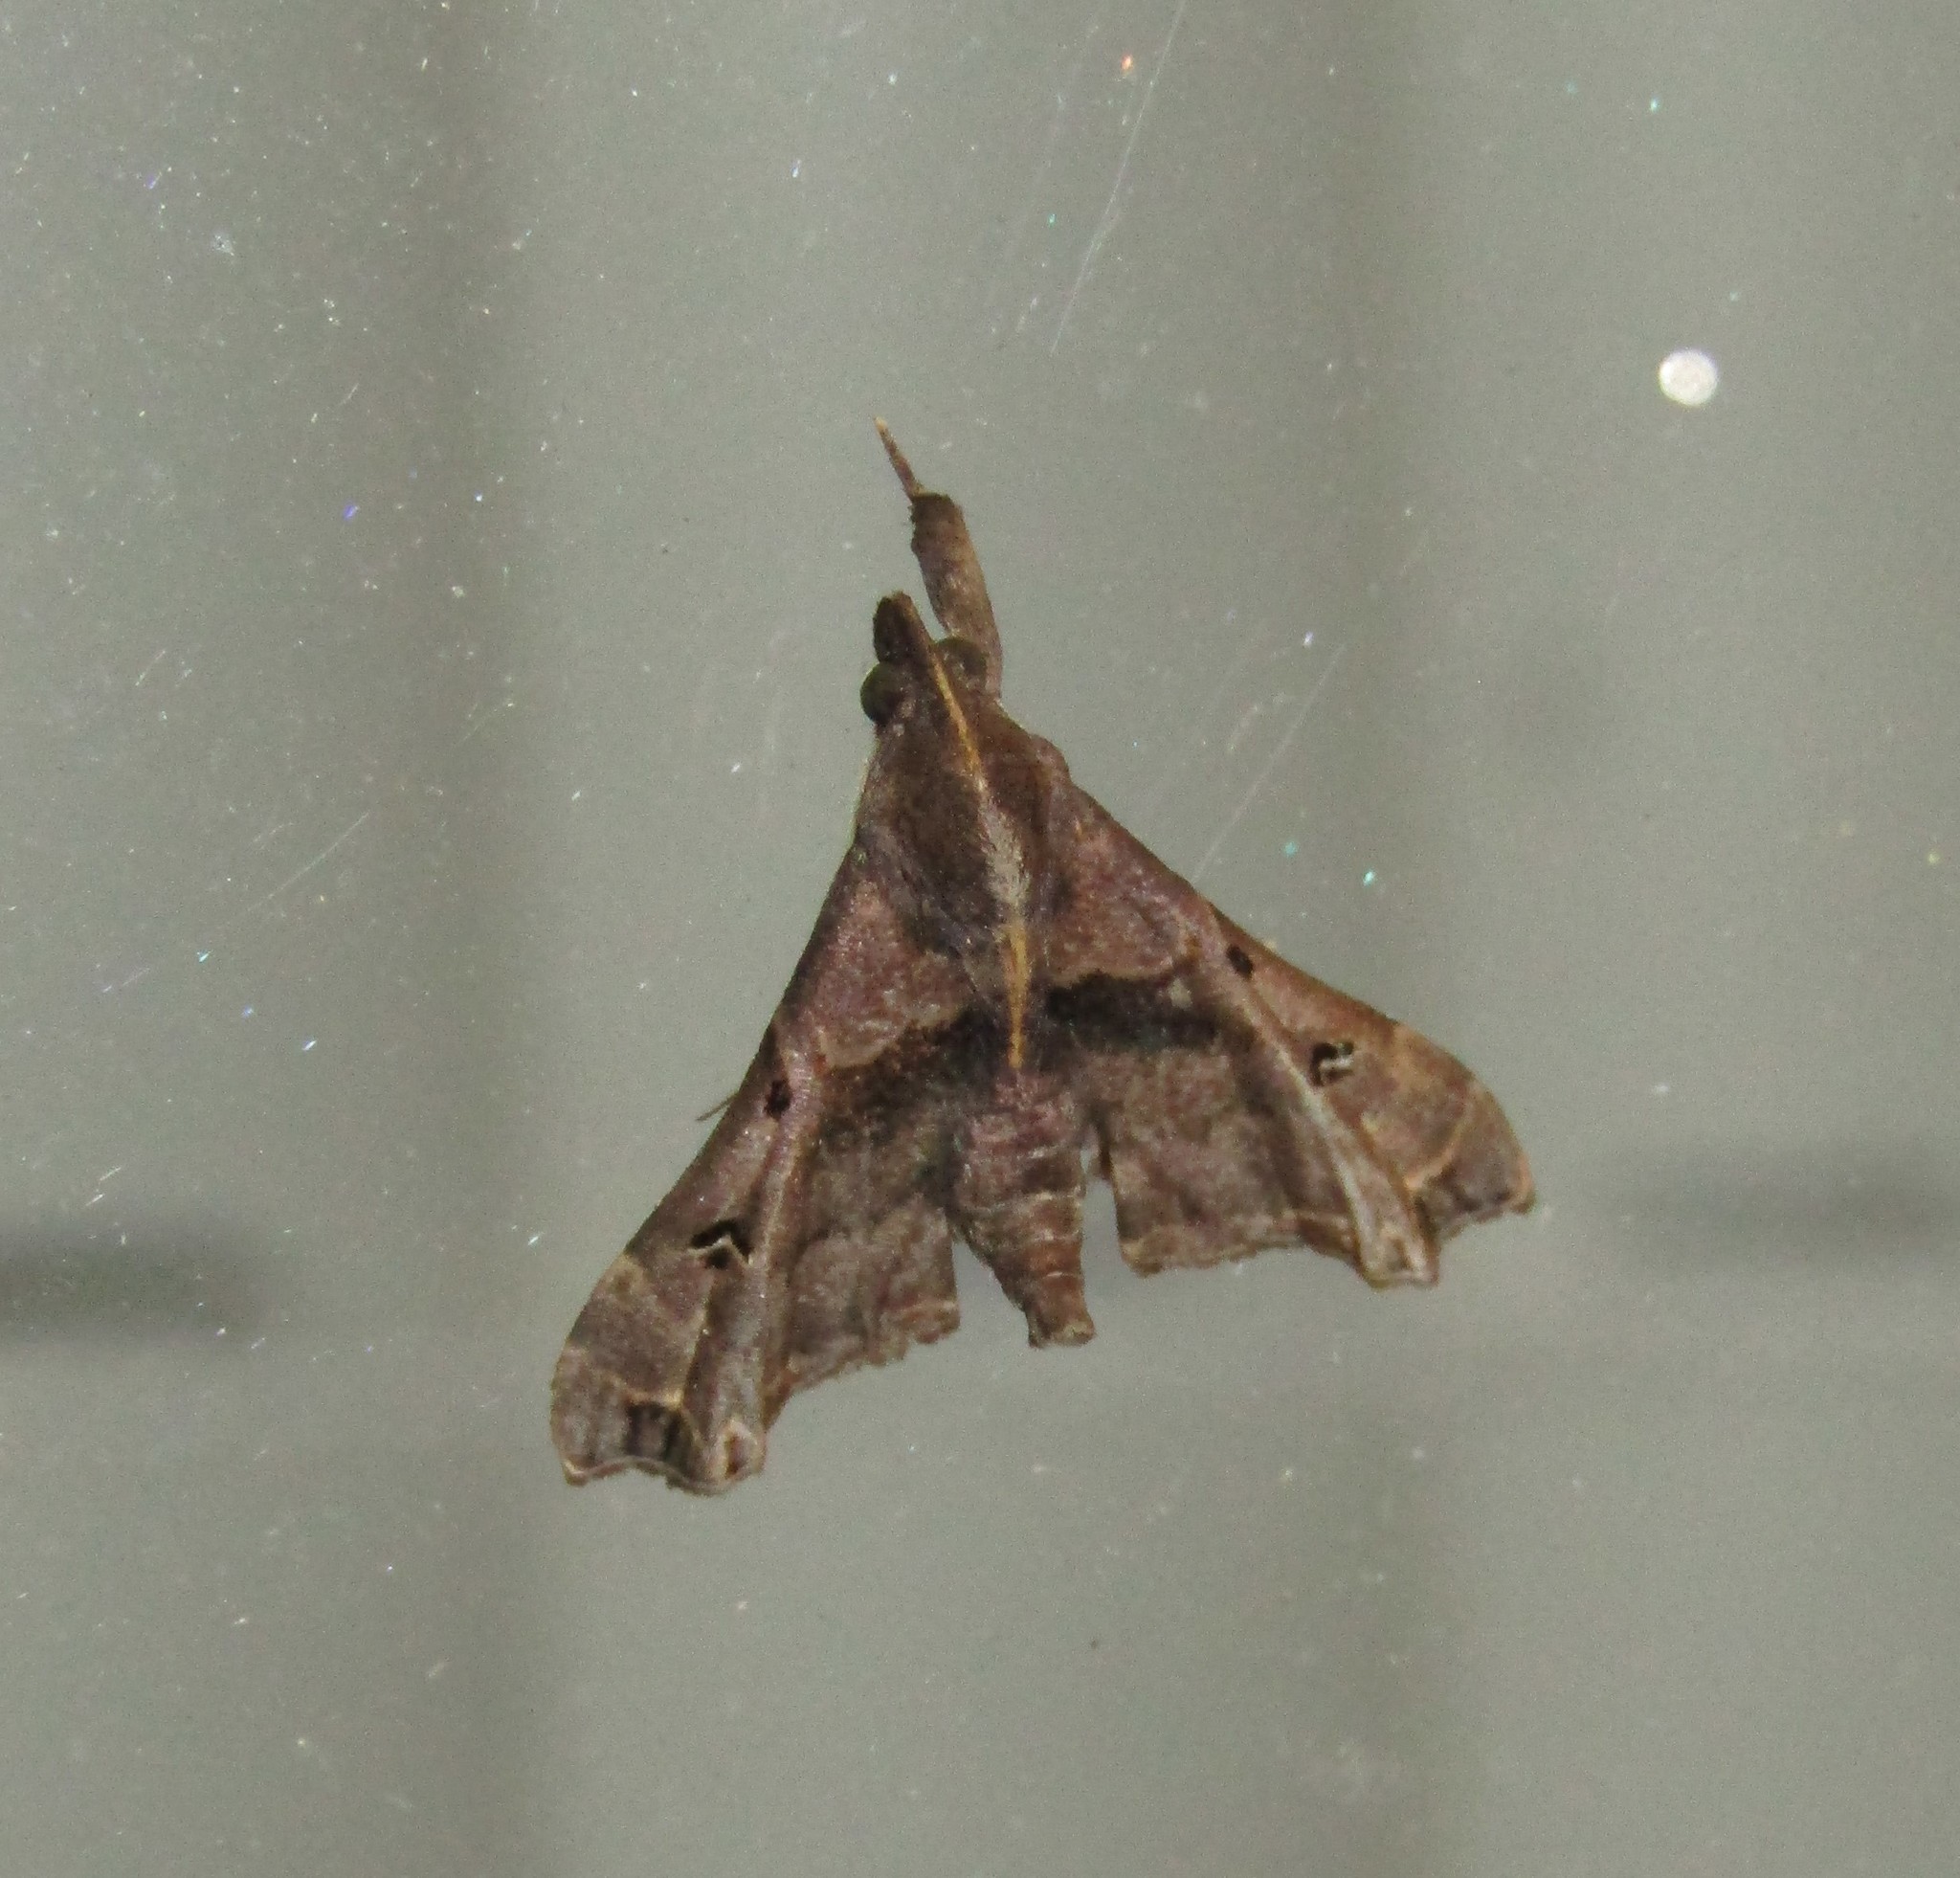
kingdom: Animalia
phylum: Arthropoda
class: Insecta
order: Lepidoptera
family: Erebidae
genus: Palthis
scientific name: Palthis asopialis
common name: Faint-spotted palthis moth
